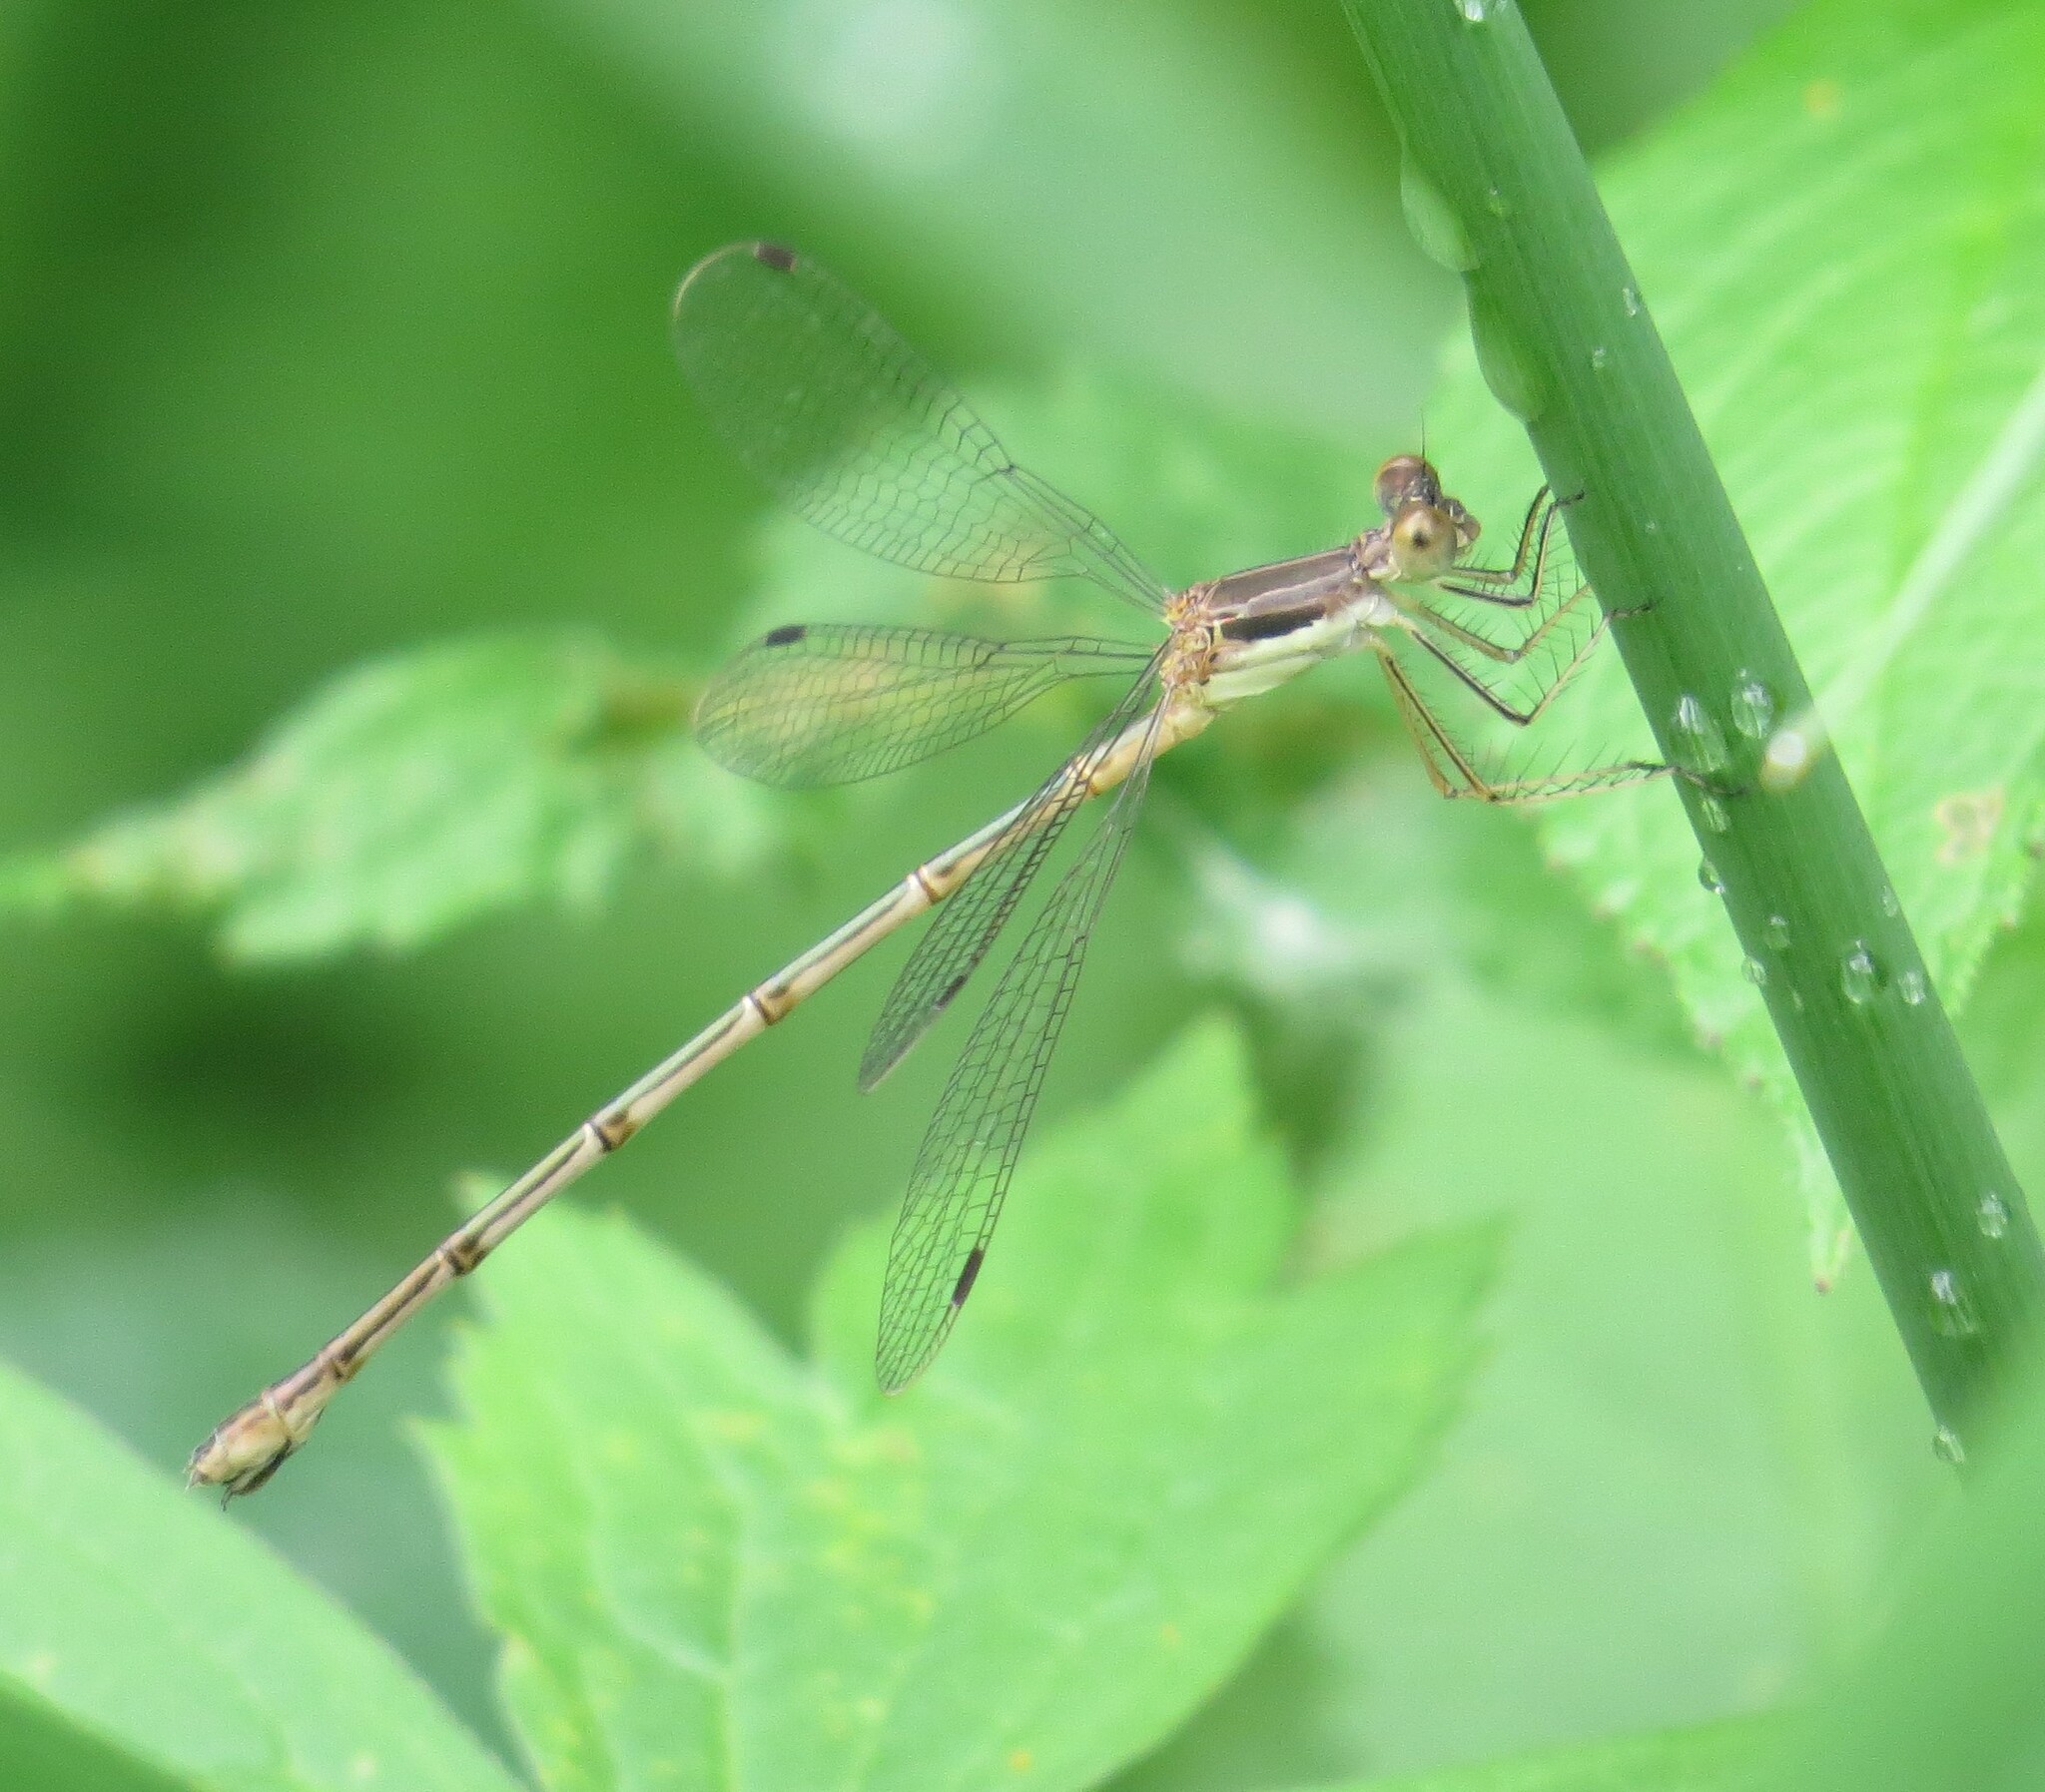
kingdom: Animalia
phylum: Arthropoda
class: Insecta
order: Odonata
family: Lestidae
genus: Lestes
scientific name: Lestes rectangularis
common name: Slender spreadwing
